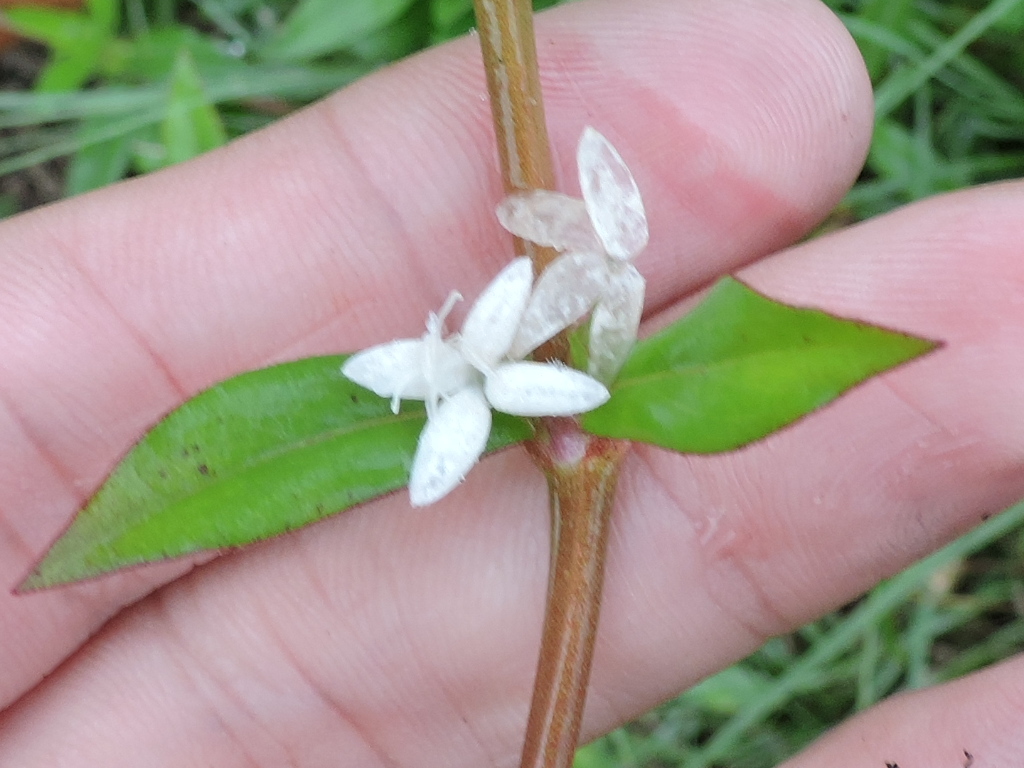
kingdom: Plantae
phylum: Tracheophyta
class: Magnoliopsida
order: Gentianales
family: Rubiaceae
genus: Diodia
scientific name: Diodia virginiana
